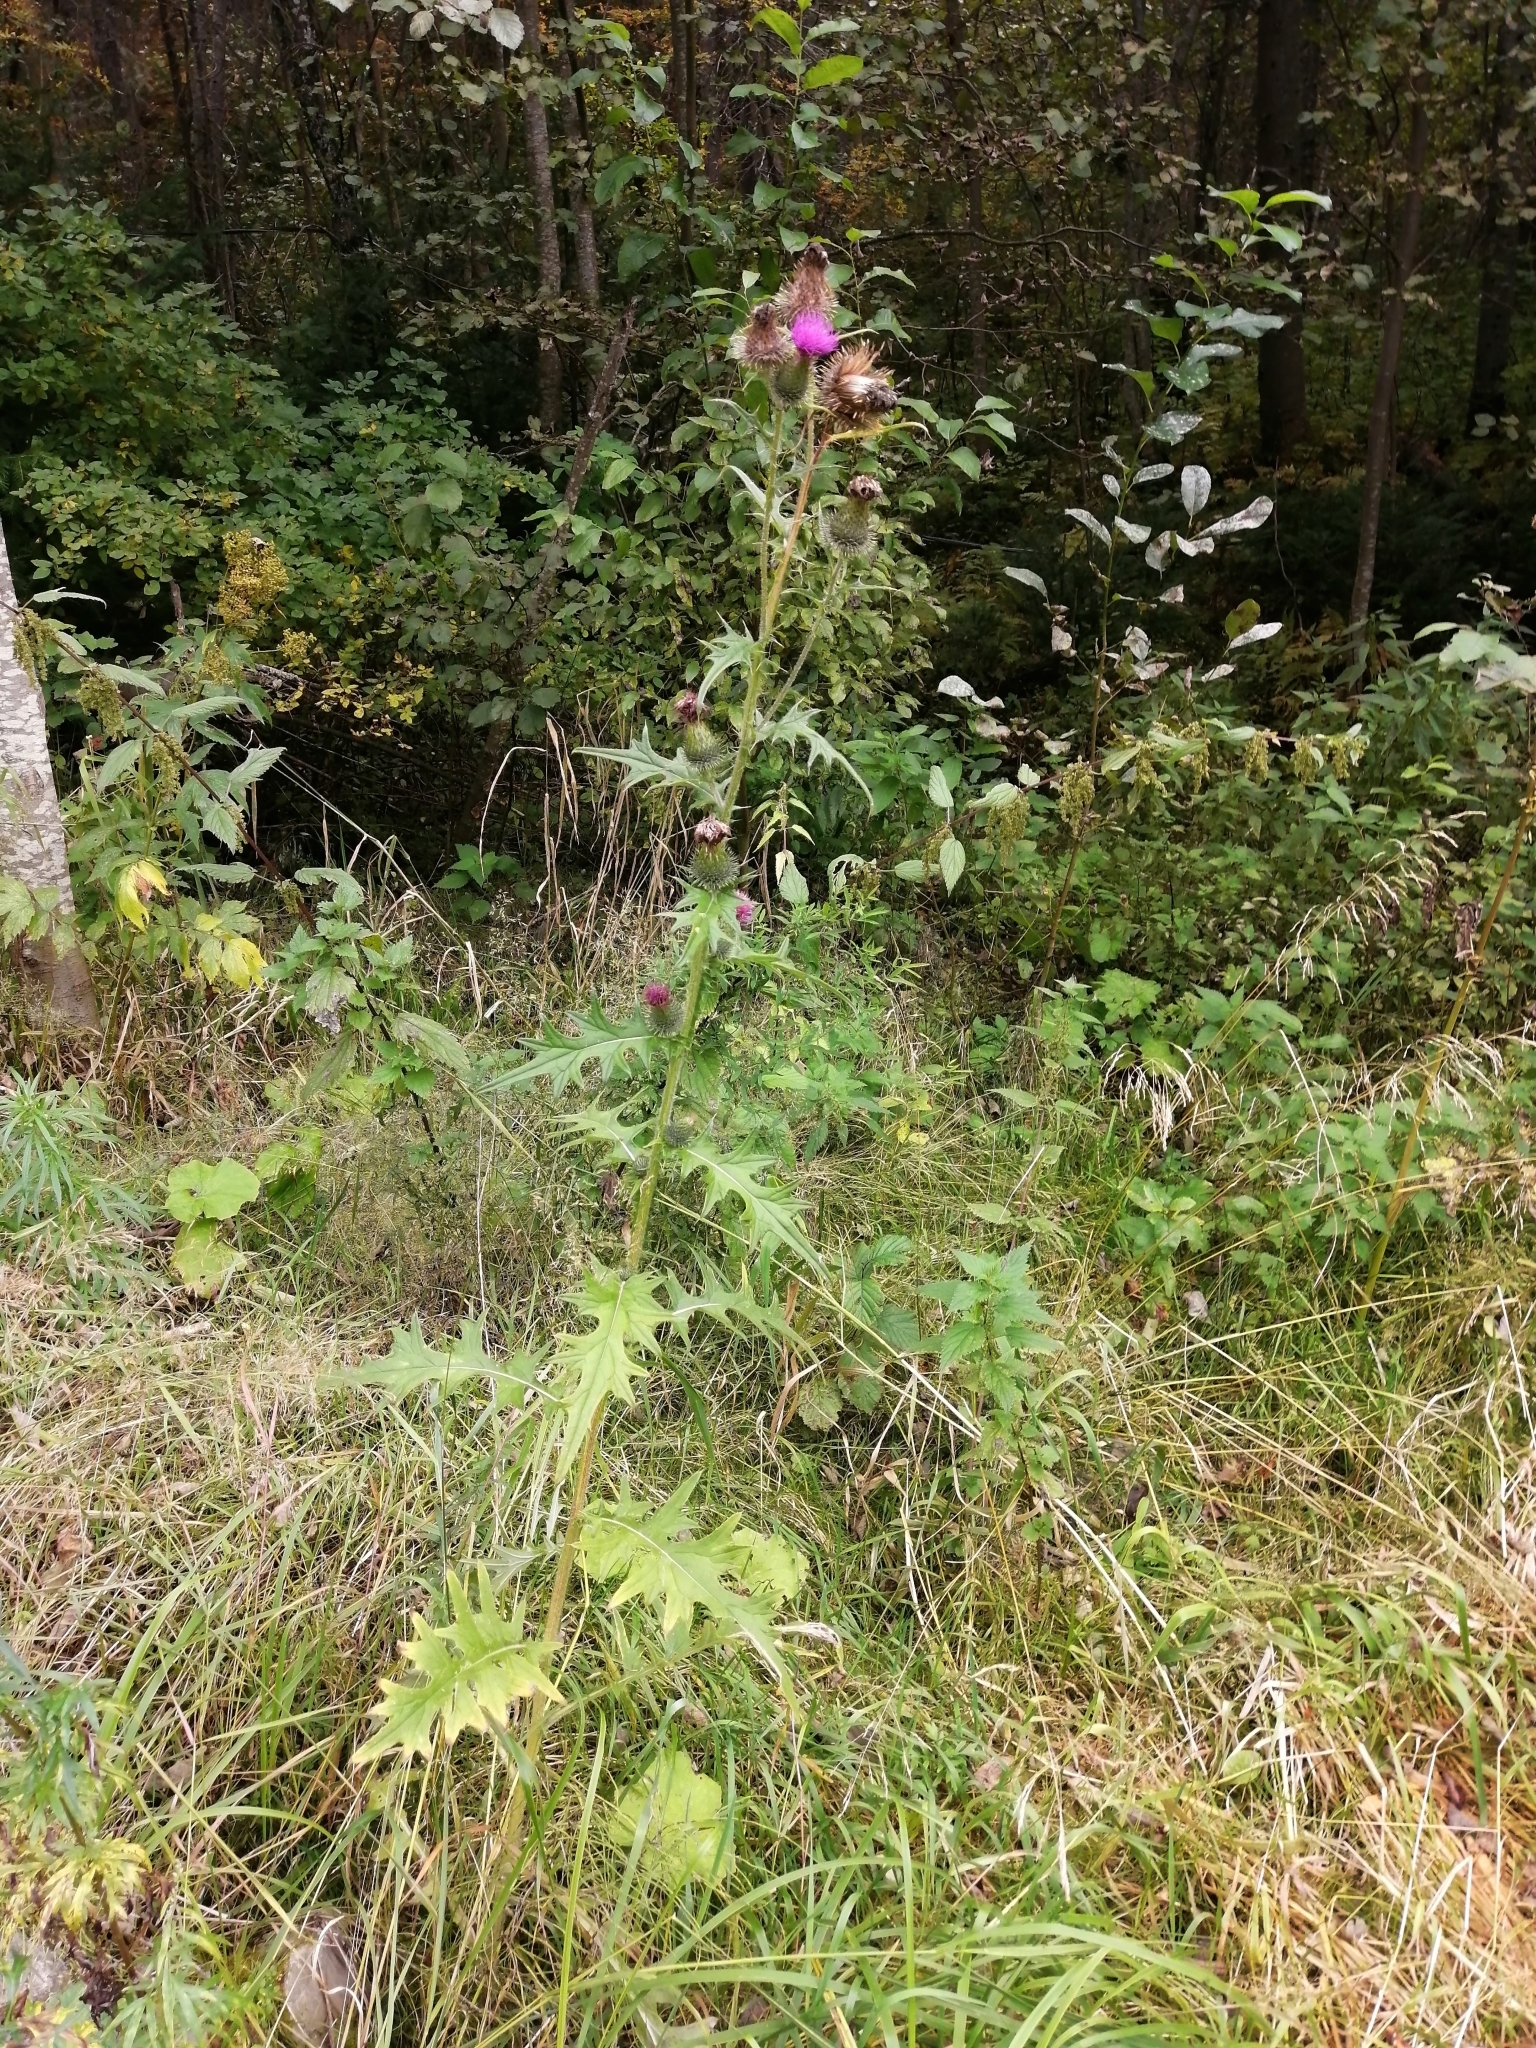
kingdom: Plantae
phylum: Tracheophyta
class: Magnoliopsida
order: Asterales
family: Asteraceae
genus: Cirsium
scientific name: Cirsium vulgare
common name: Bull thistle
